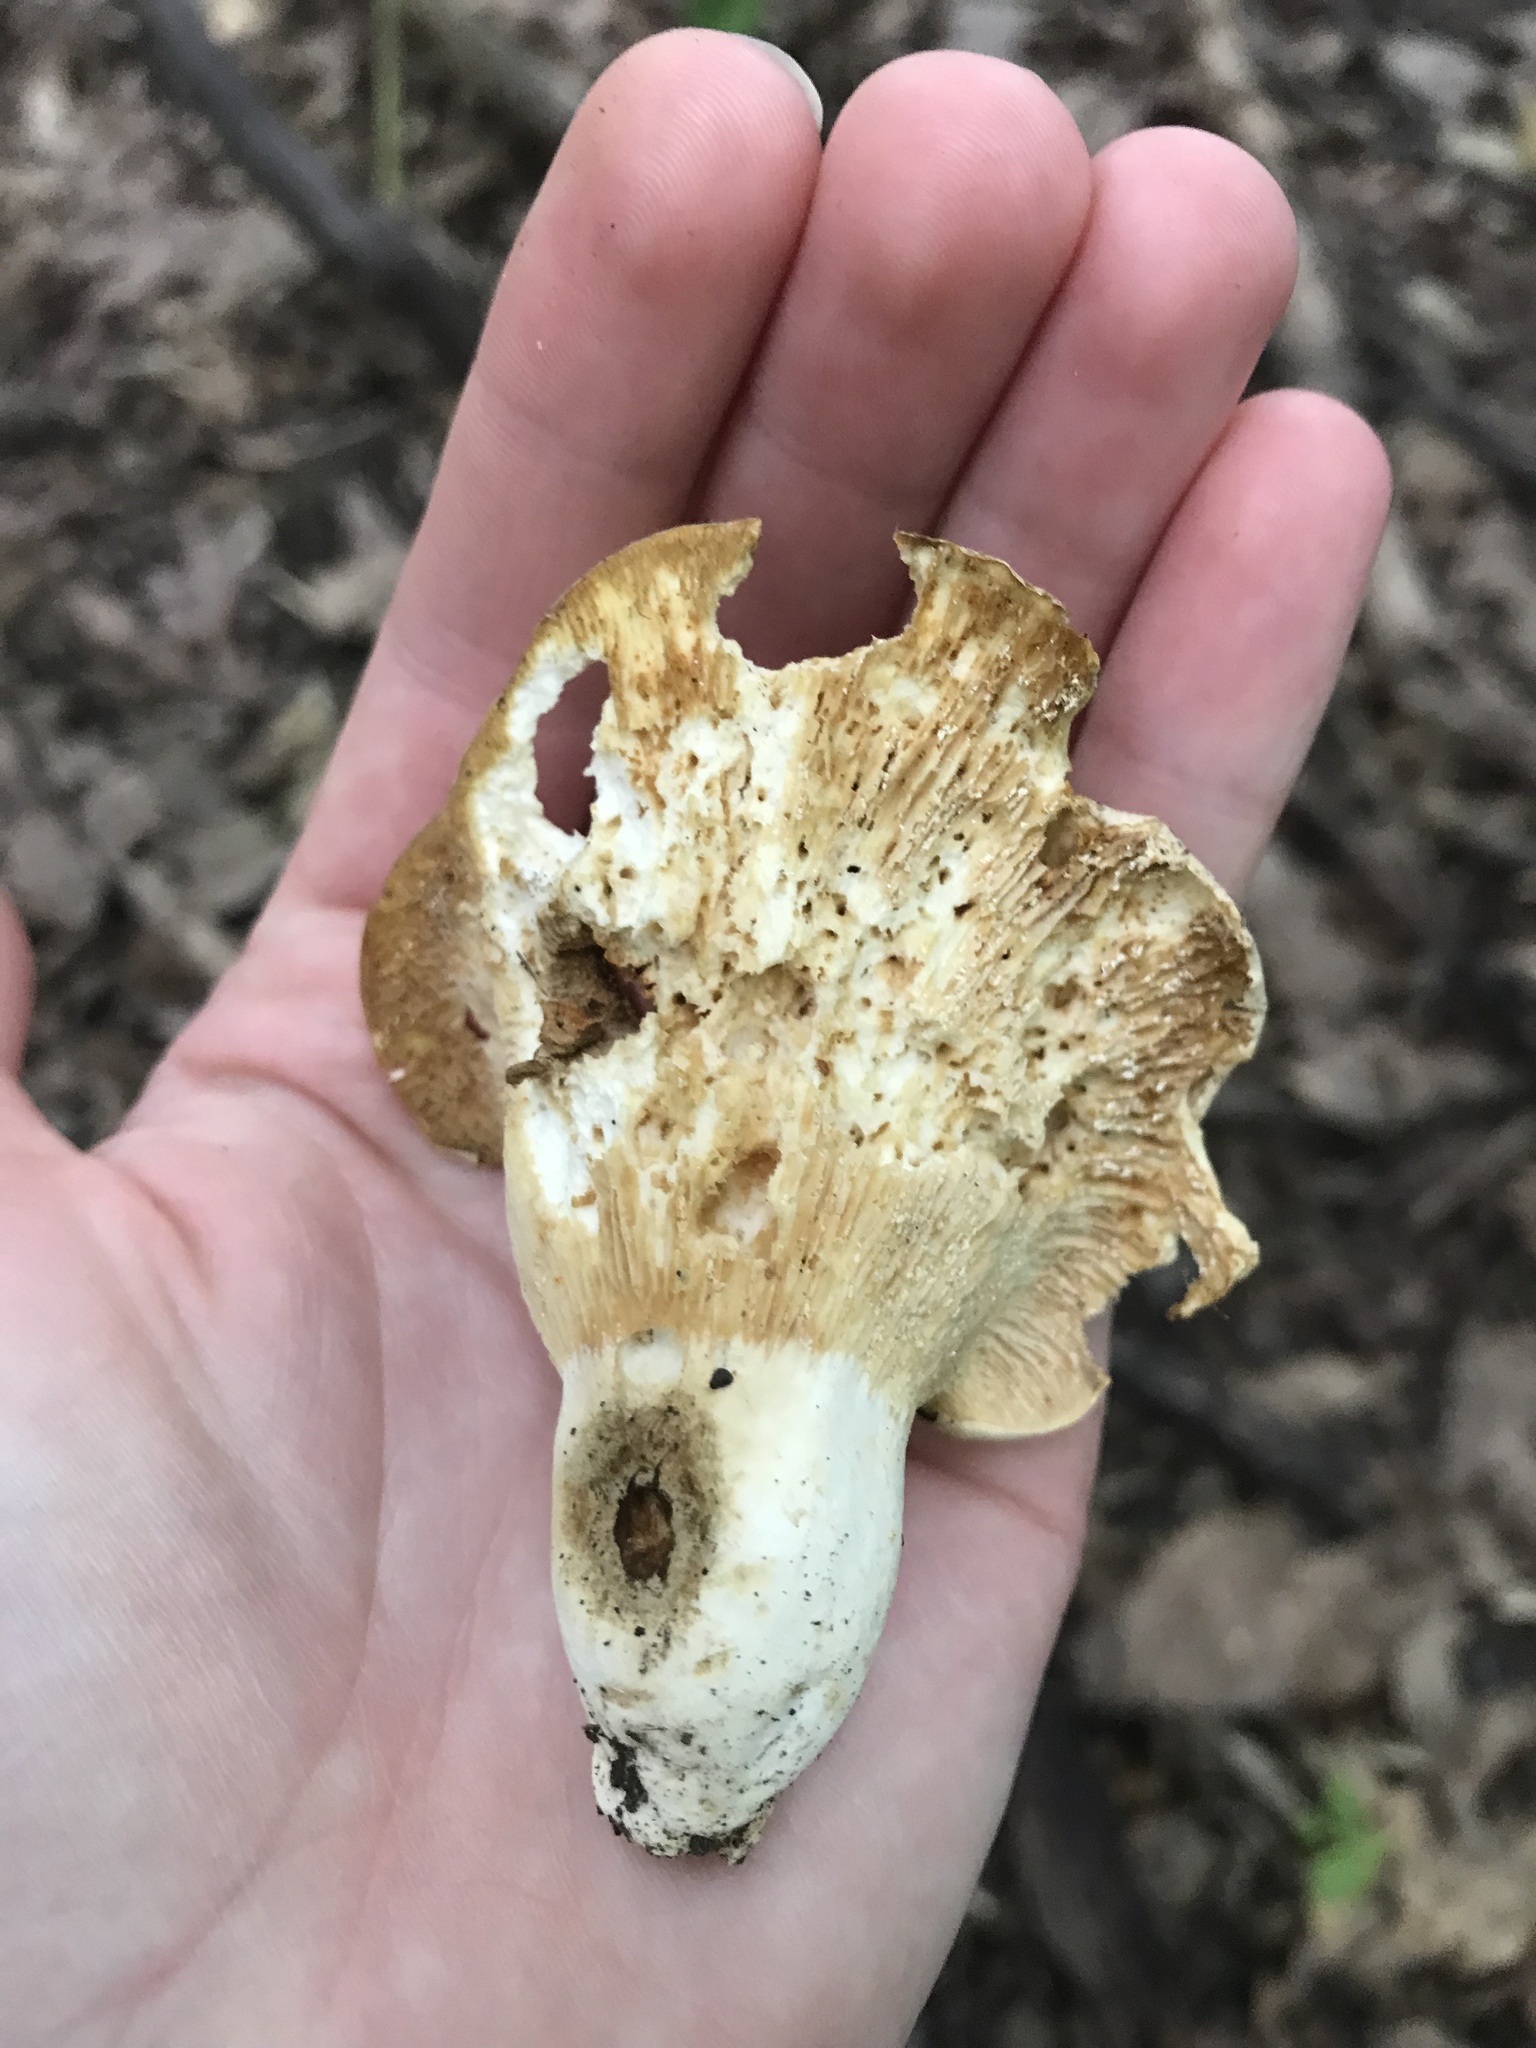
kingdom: Fungi
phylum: Basidiomycota
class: Agaricomycetes
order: Russulales
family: Russulaceae
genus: Lactifluus
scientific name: Lactifluus piperatus
